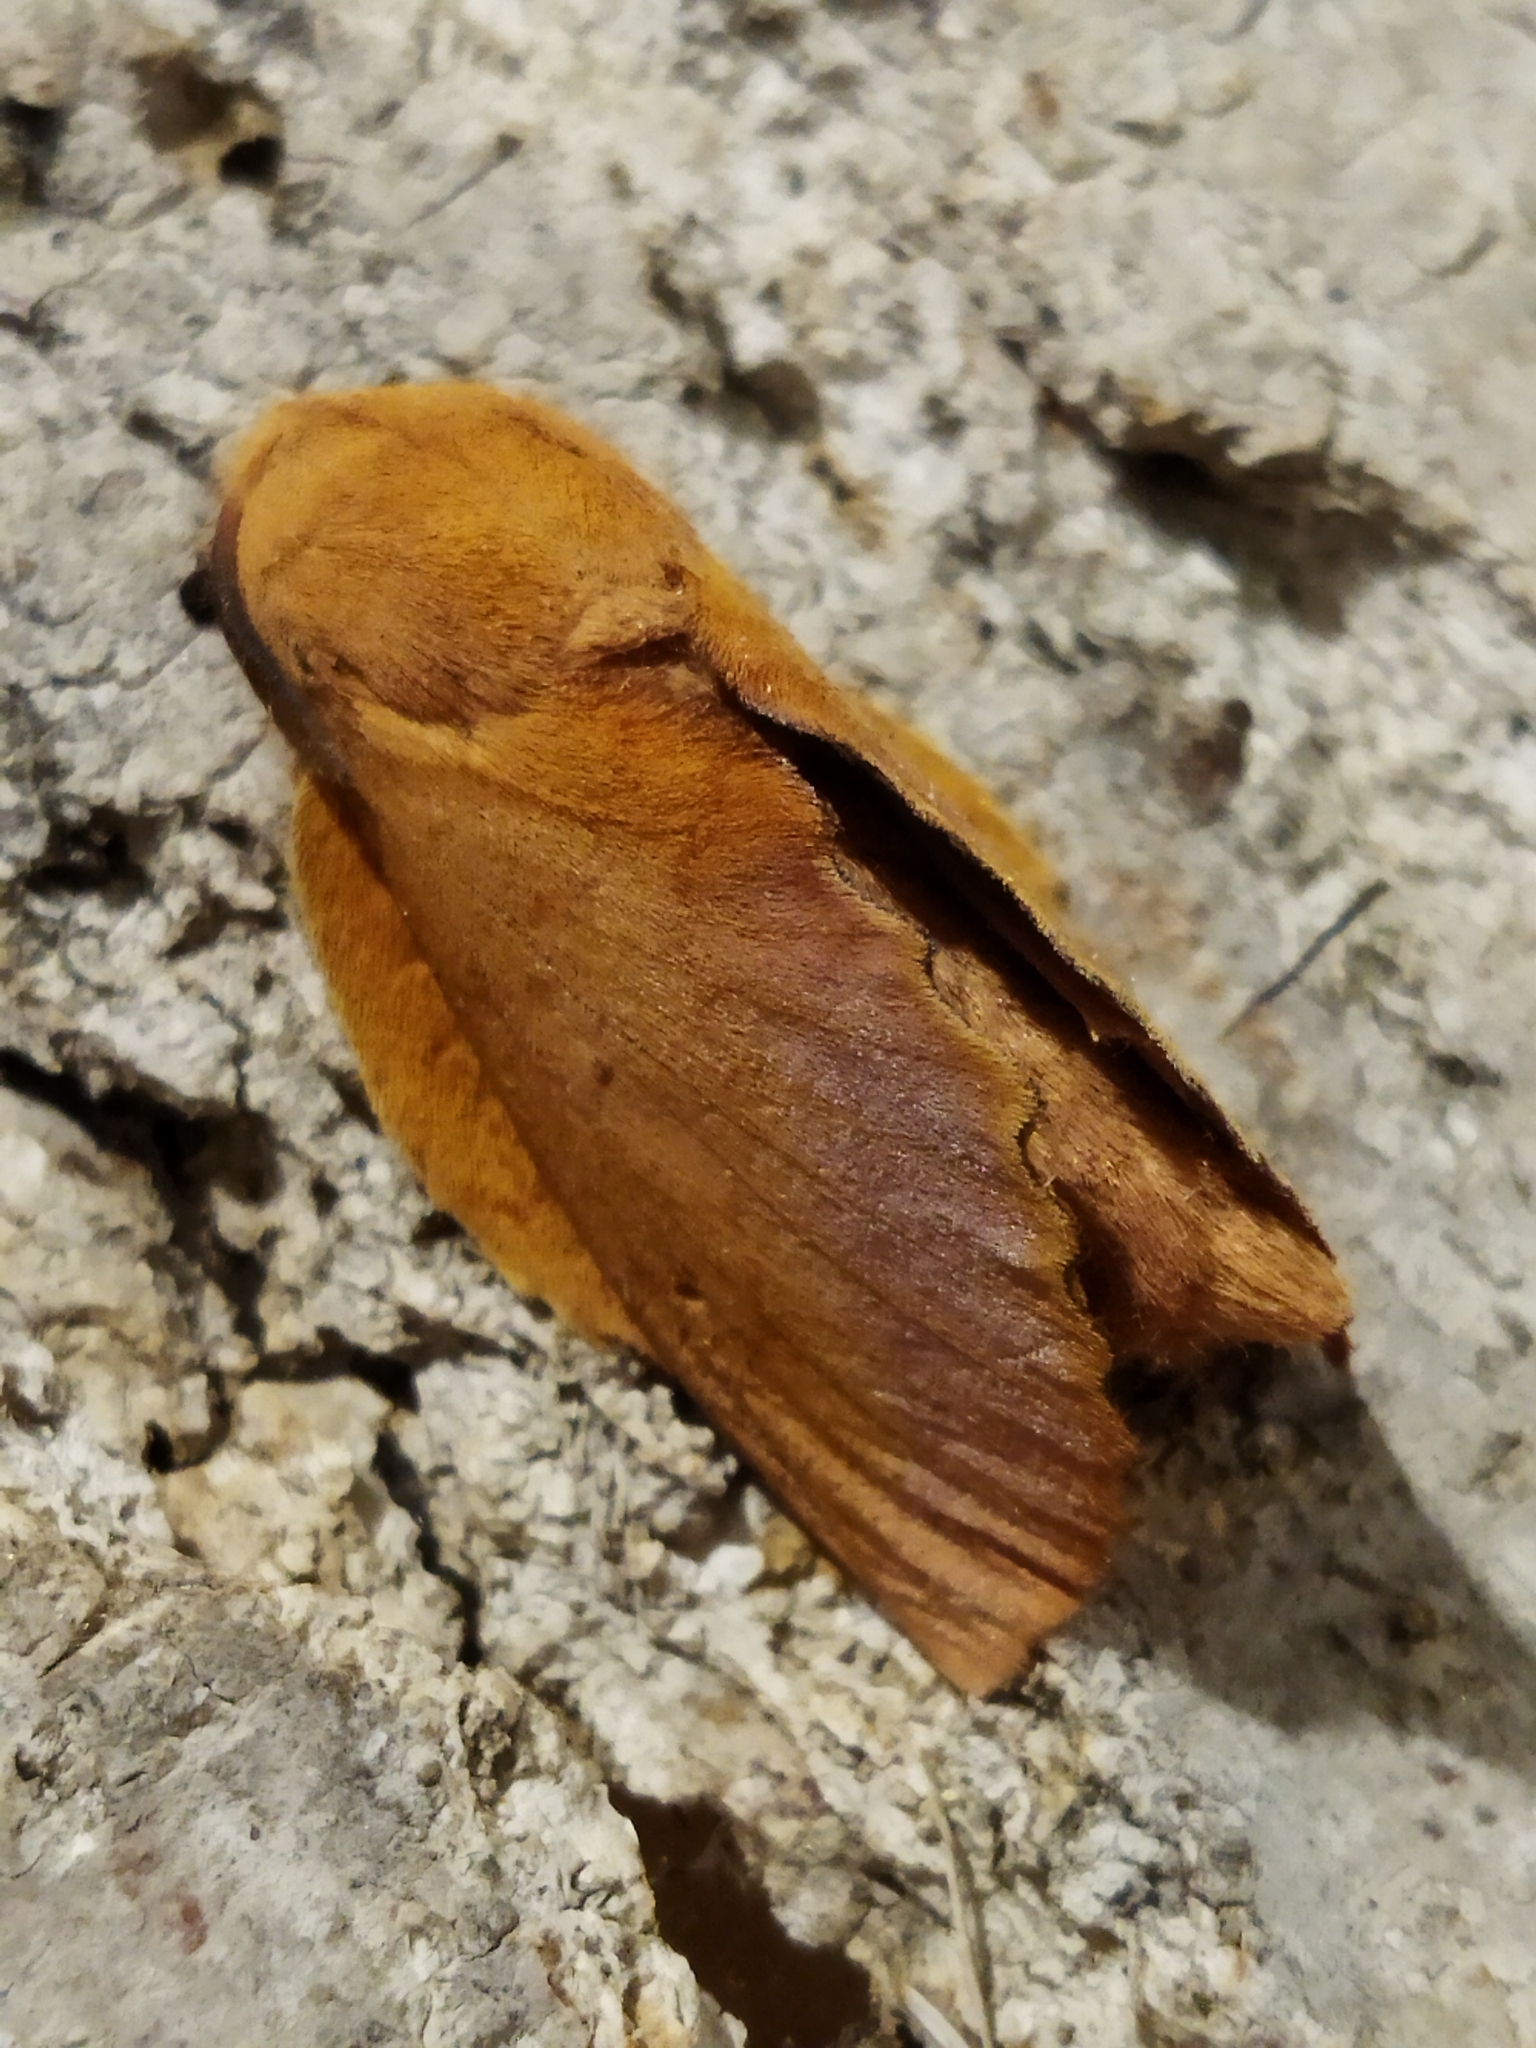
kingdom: Animalia
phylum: Arthropoda
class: Insecta
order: Lepidoptera
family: Lasiocampidae
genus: Gastropacha
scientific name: Gastropacha quercifolia
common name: Lappet
